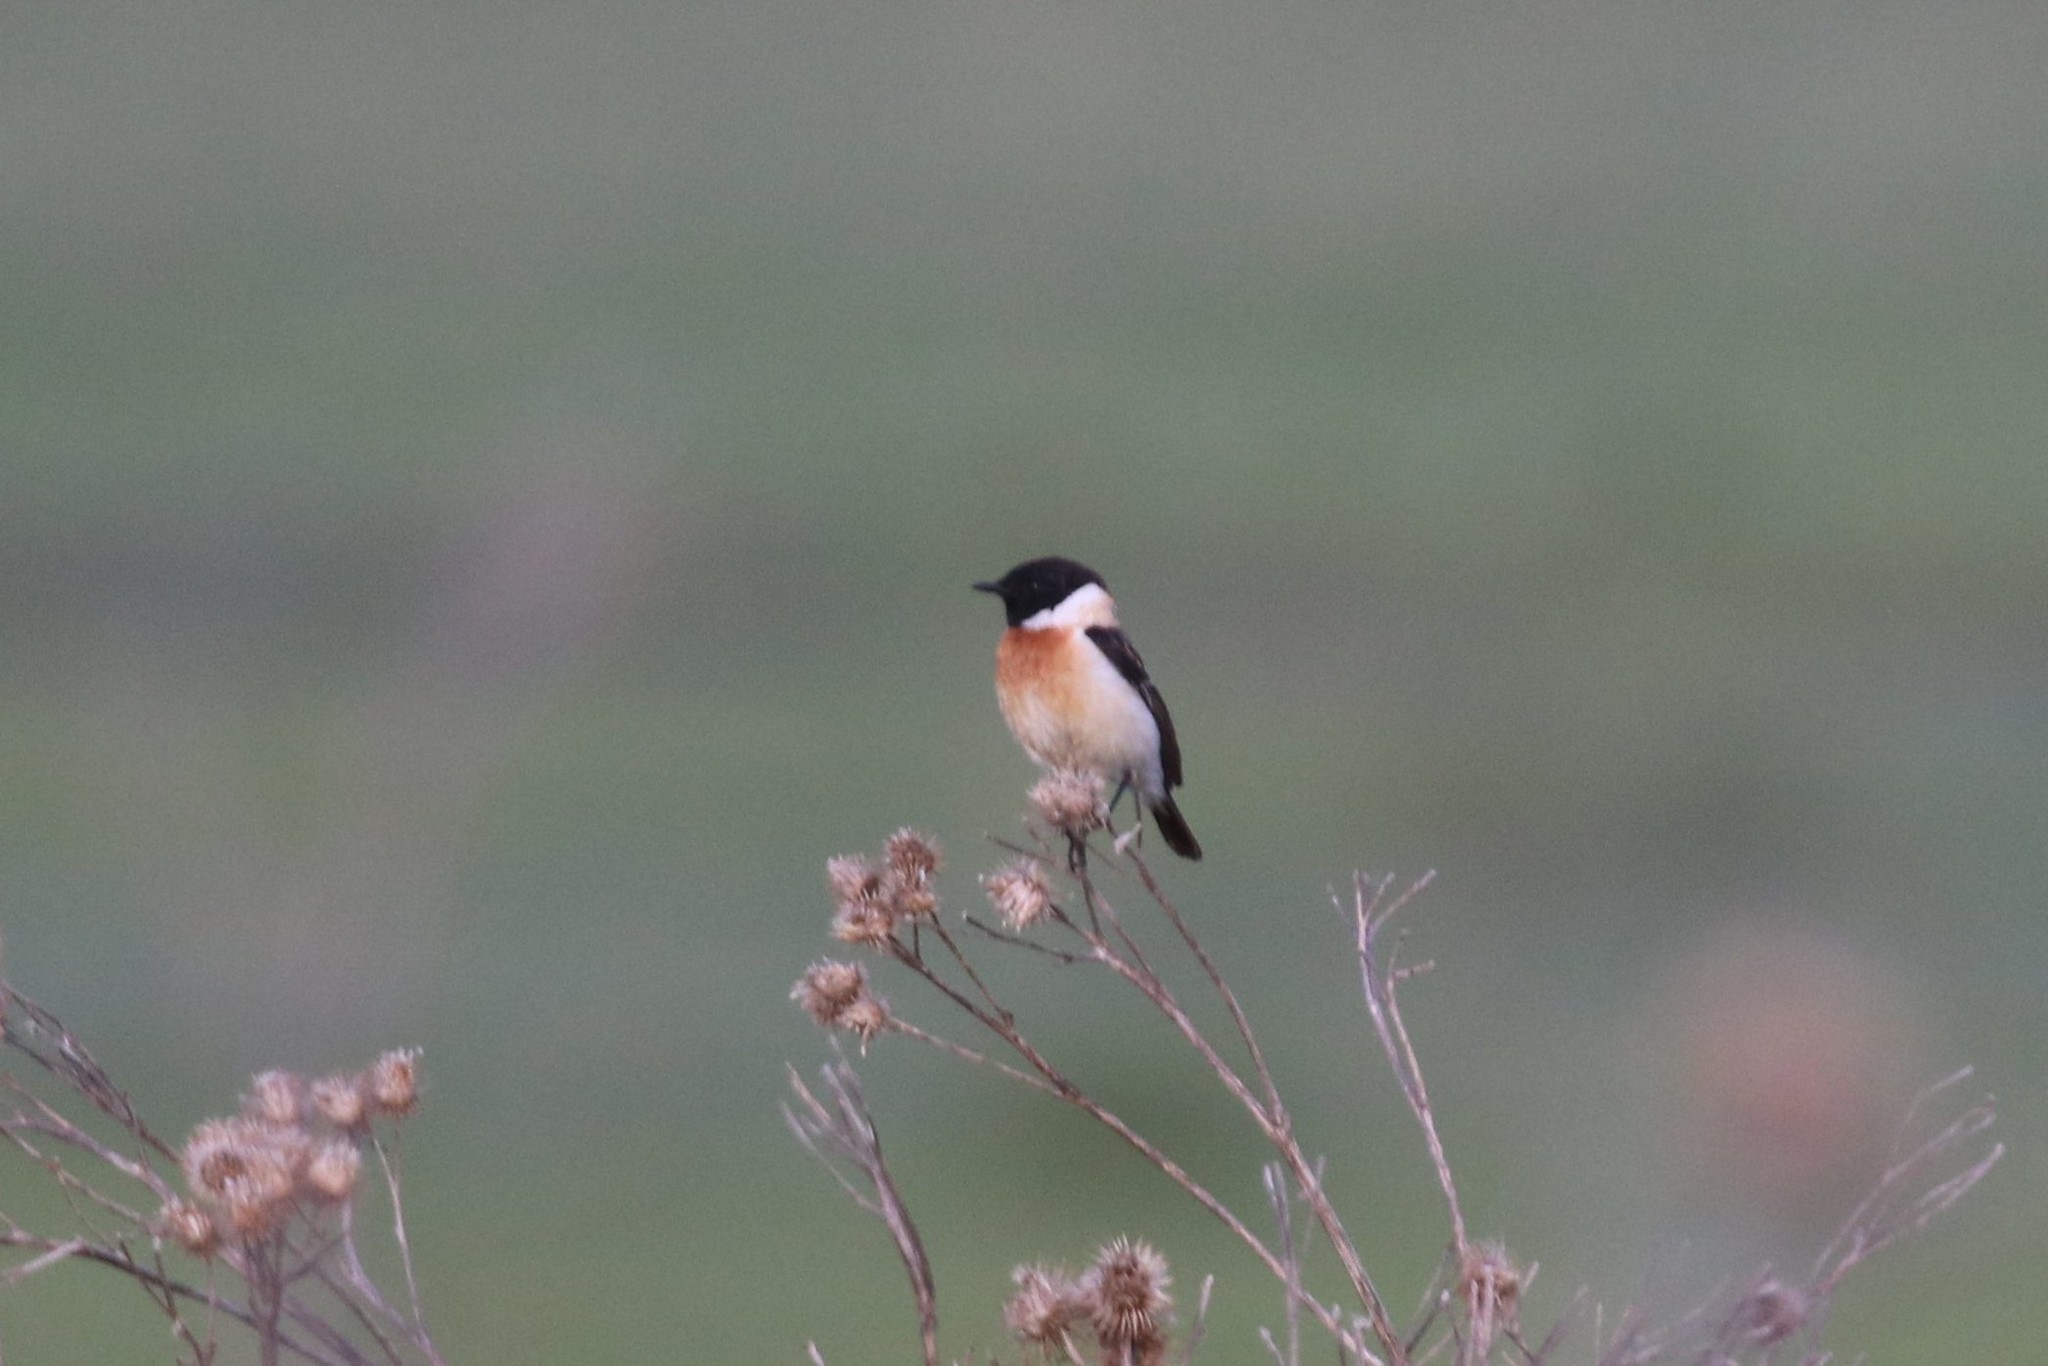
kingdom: Animalia
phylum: Chordata
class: Aves
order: Passeriformes
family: Muscicapidae
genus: Saxicola
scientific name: Saxicola maurus
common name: Siberian stonechat
